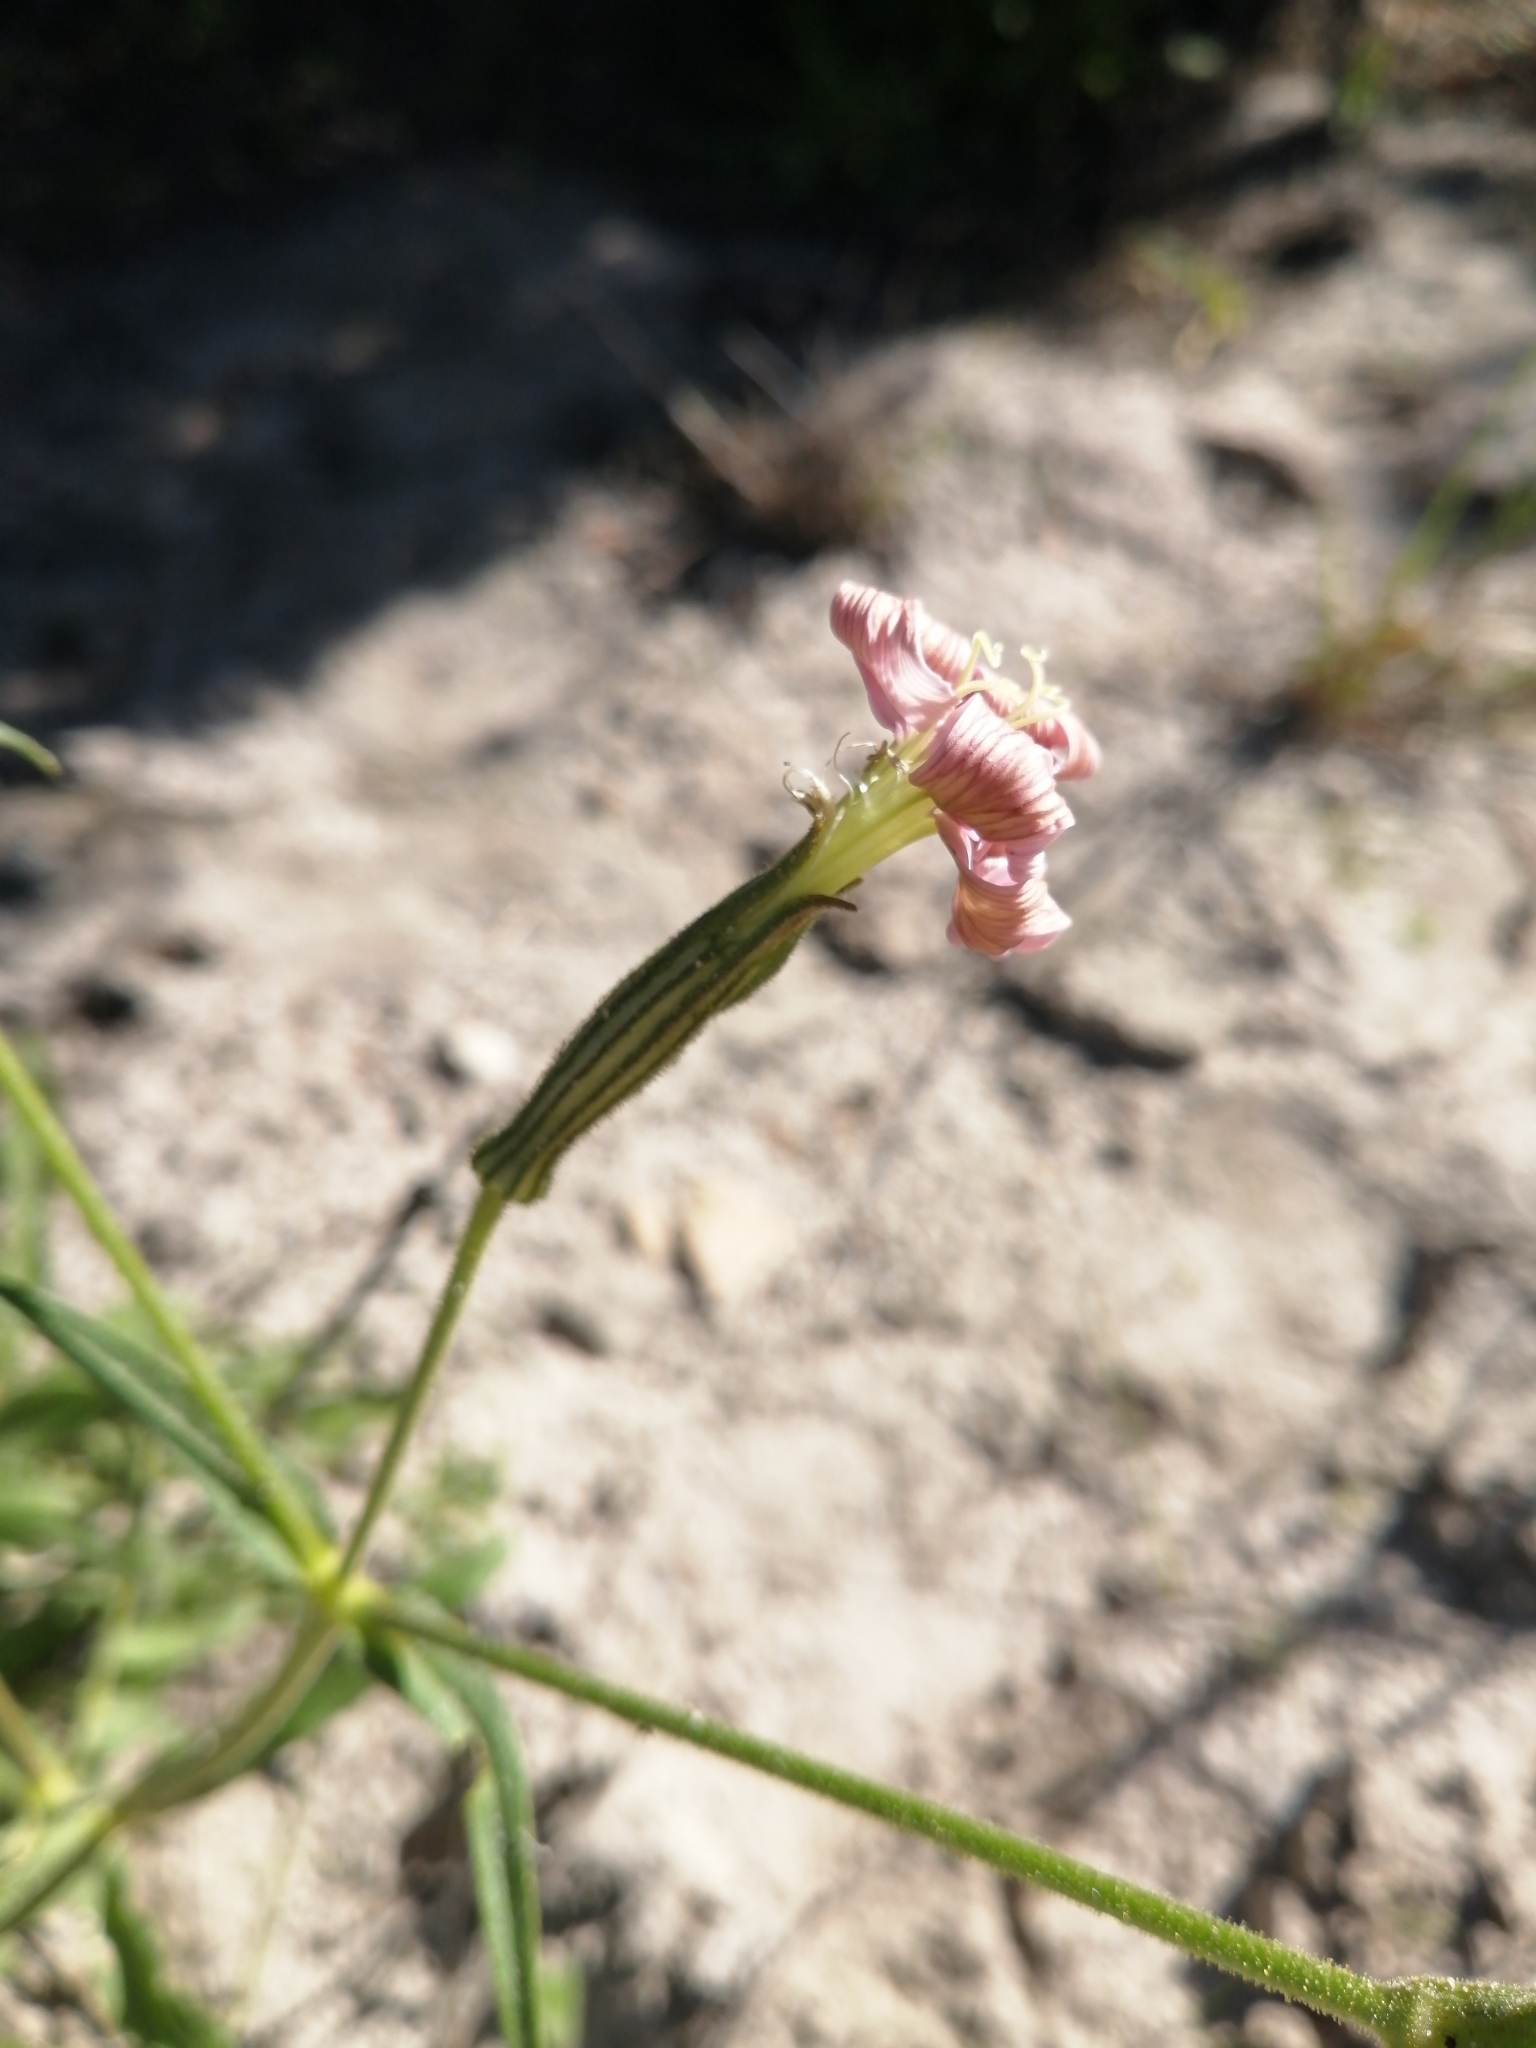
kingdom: Plantae
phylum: Tracheophyta
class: Magnoliopsida
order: Caryophyllales
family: Caryophyllaceae
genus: Silene
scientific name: Silene undulata
